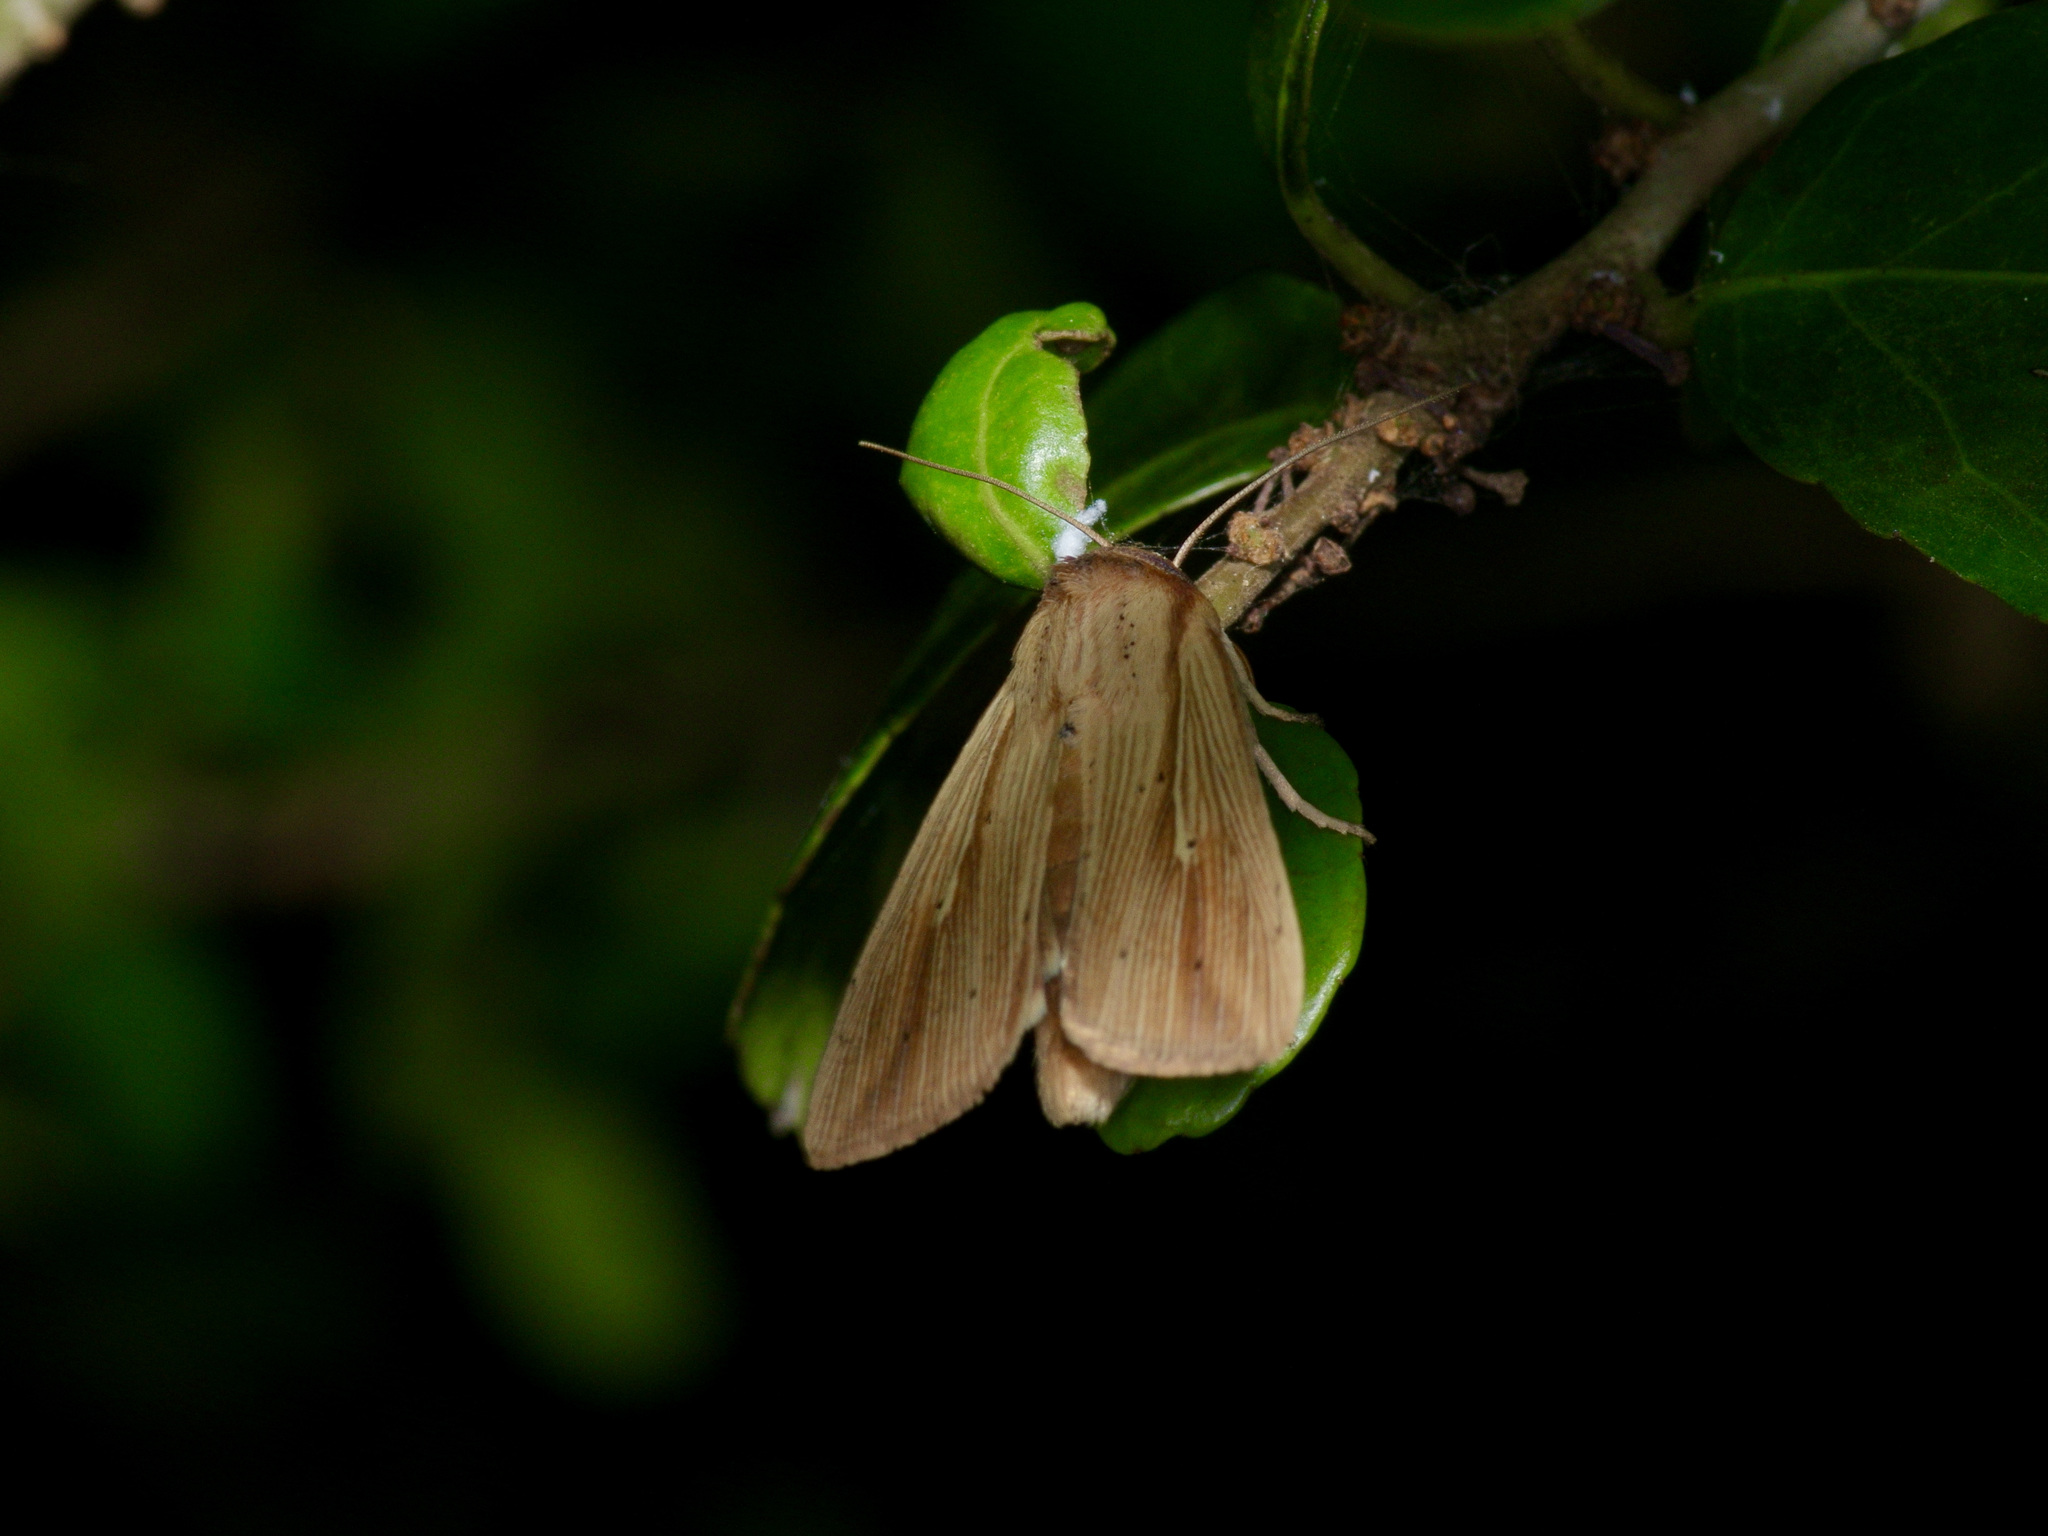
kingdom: Animalia
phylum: Arthropoda
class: Insecta
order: Lepidoptera
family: Noctuidae
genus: Leucania
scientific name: Leucania adjuta
